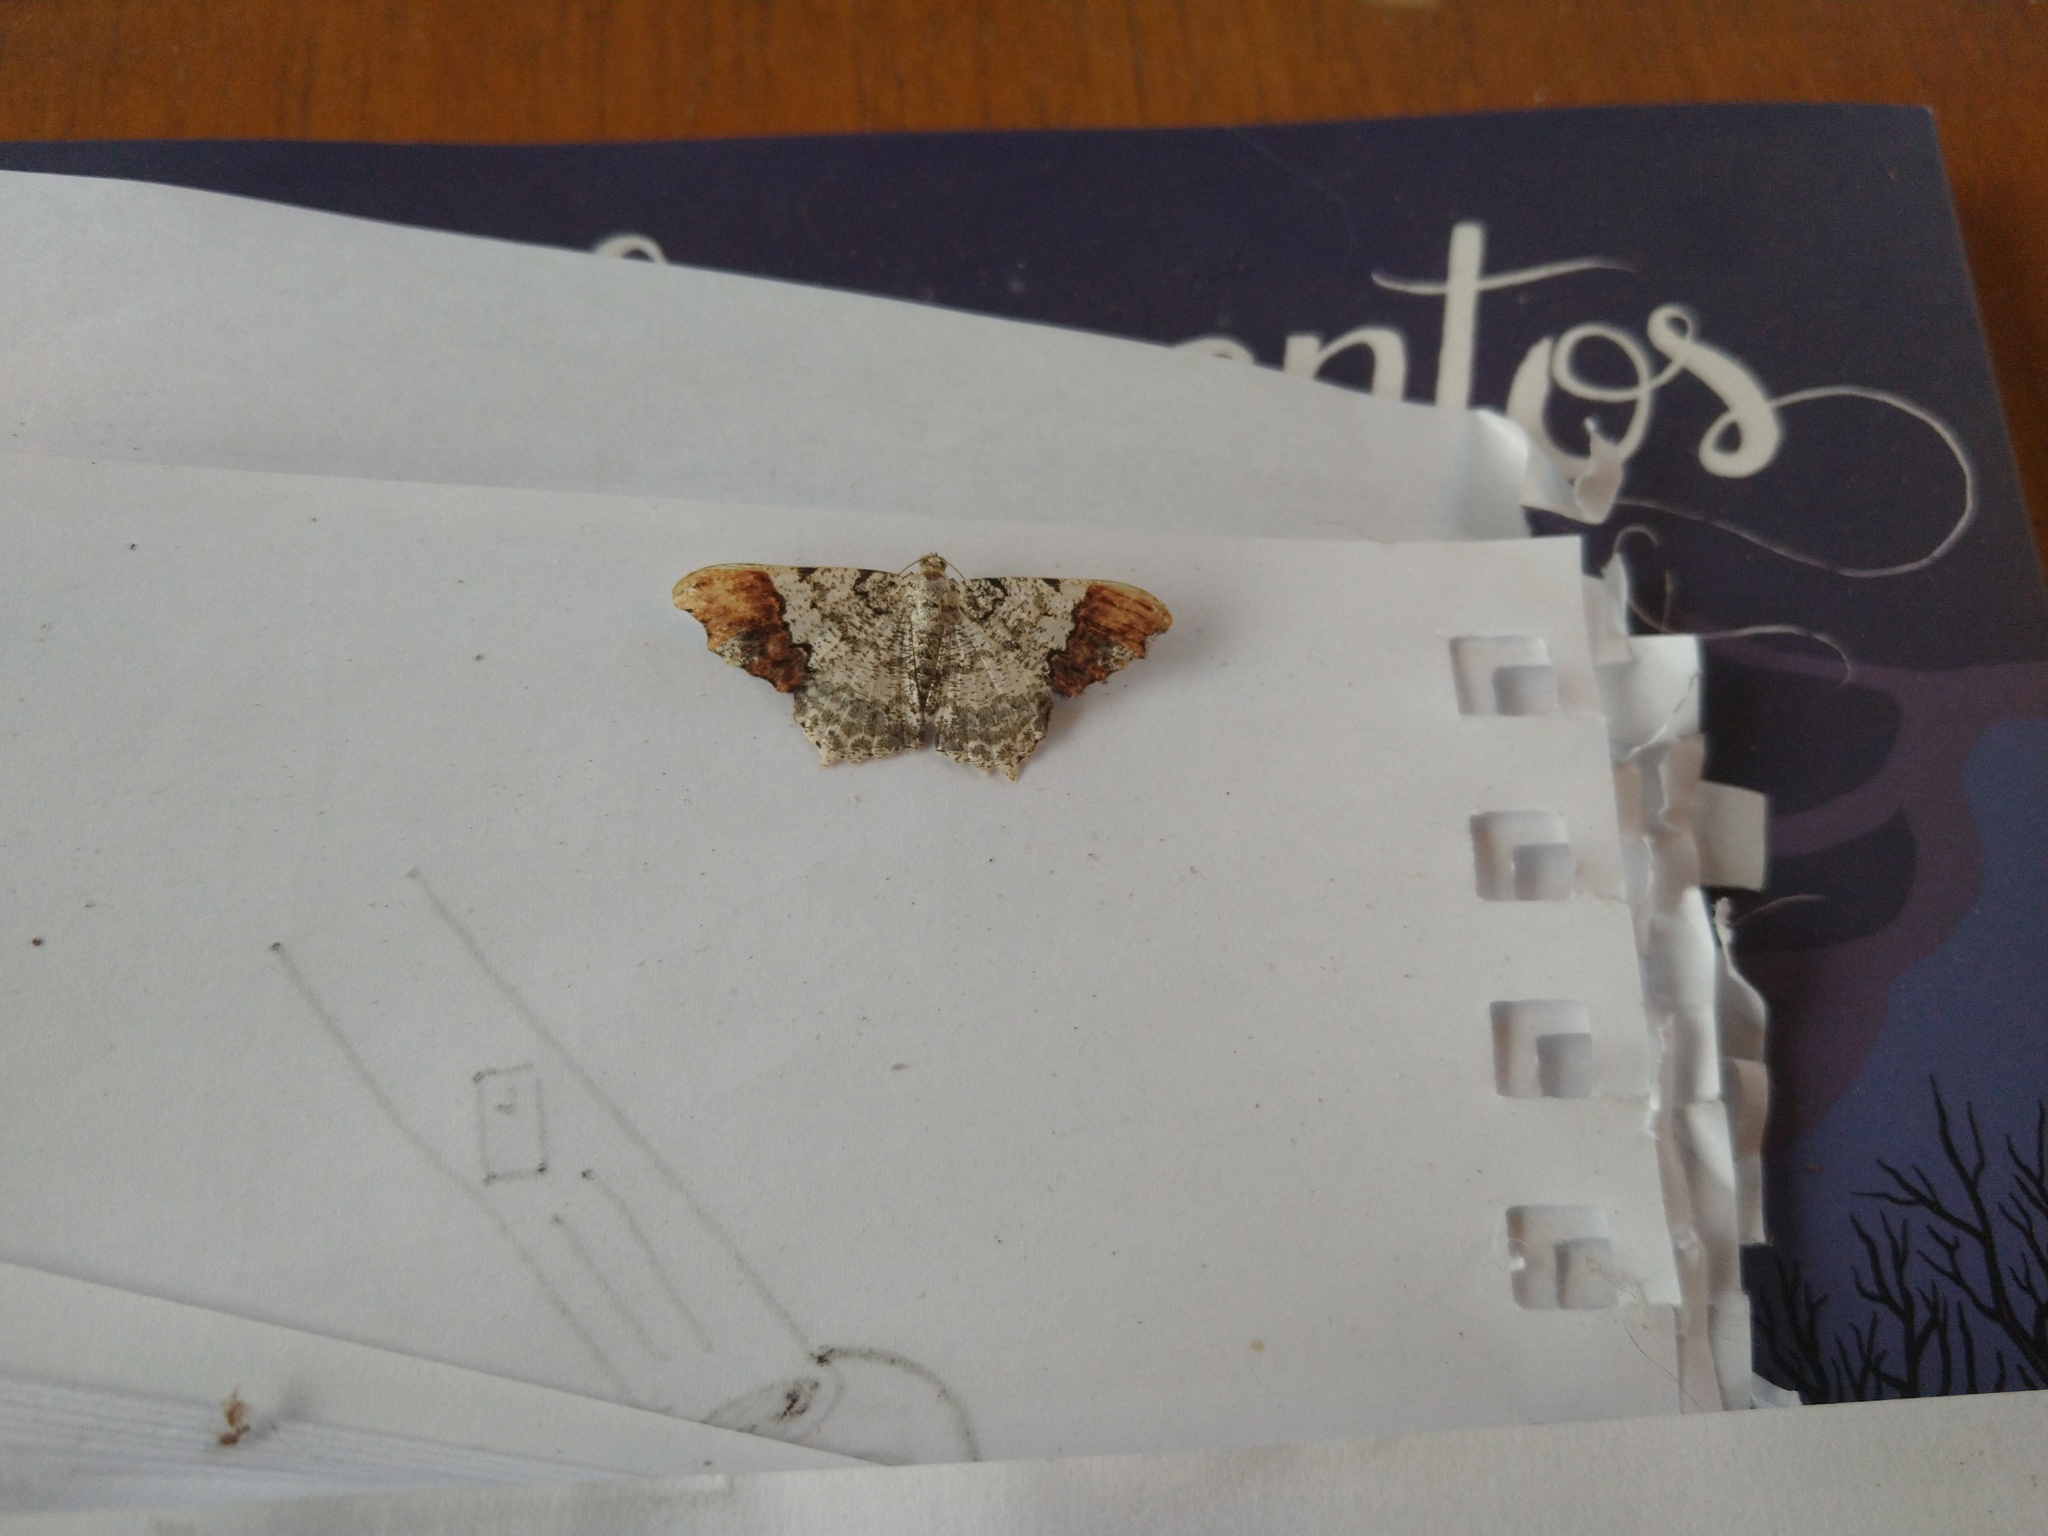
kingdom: Animalia
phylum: Arthropoda
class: Insecta
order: Lepidoptera
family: Geometridae
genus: Macaria
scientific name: Macaria approximaria
